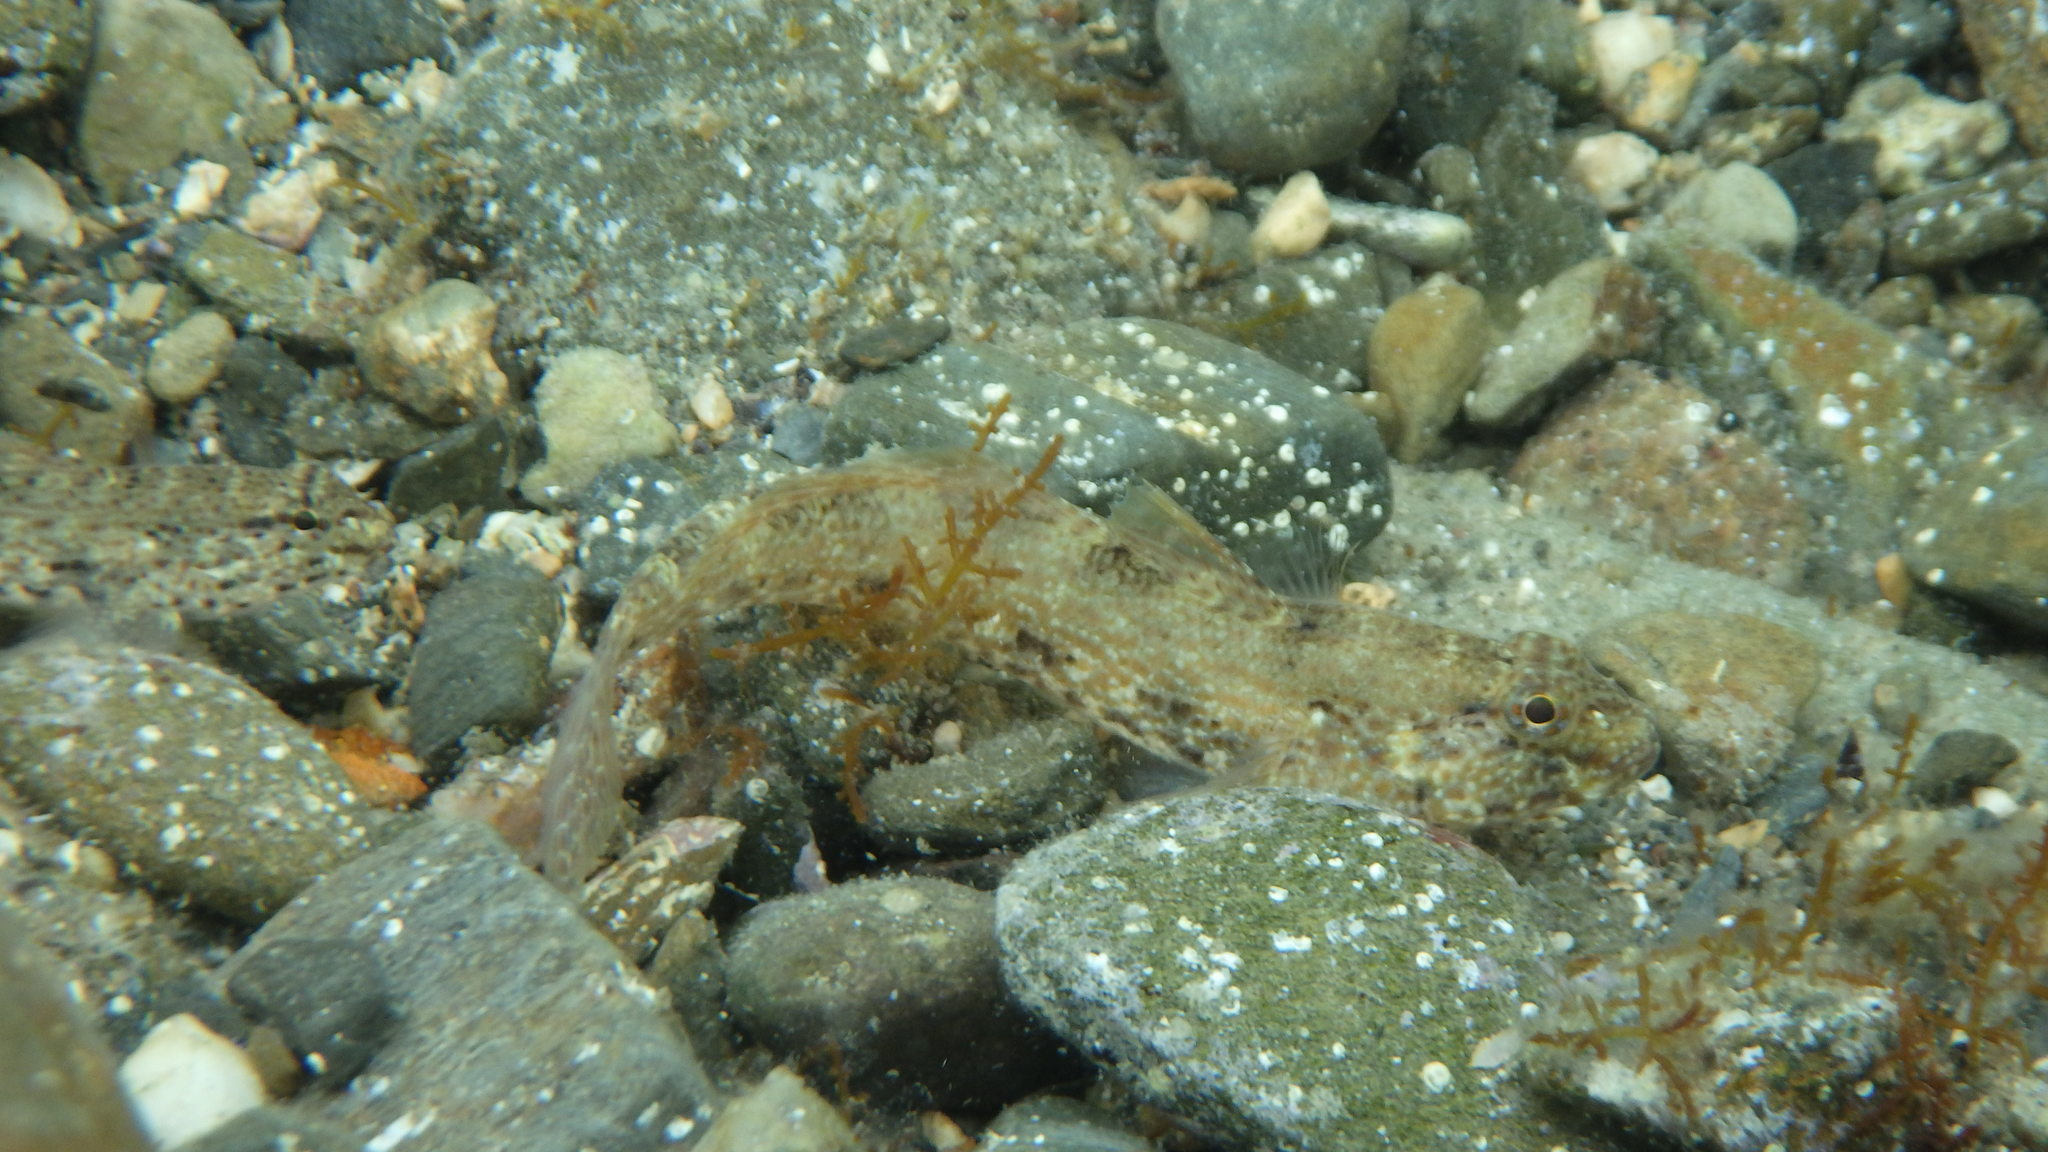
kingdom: Animalia
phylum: Chordata
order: Perciformes
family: Gobiidae
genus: Gobius
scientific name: Gobius incognitus
